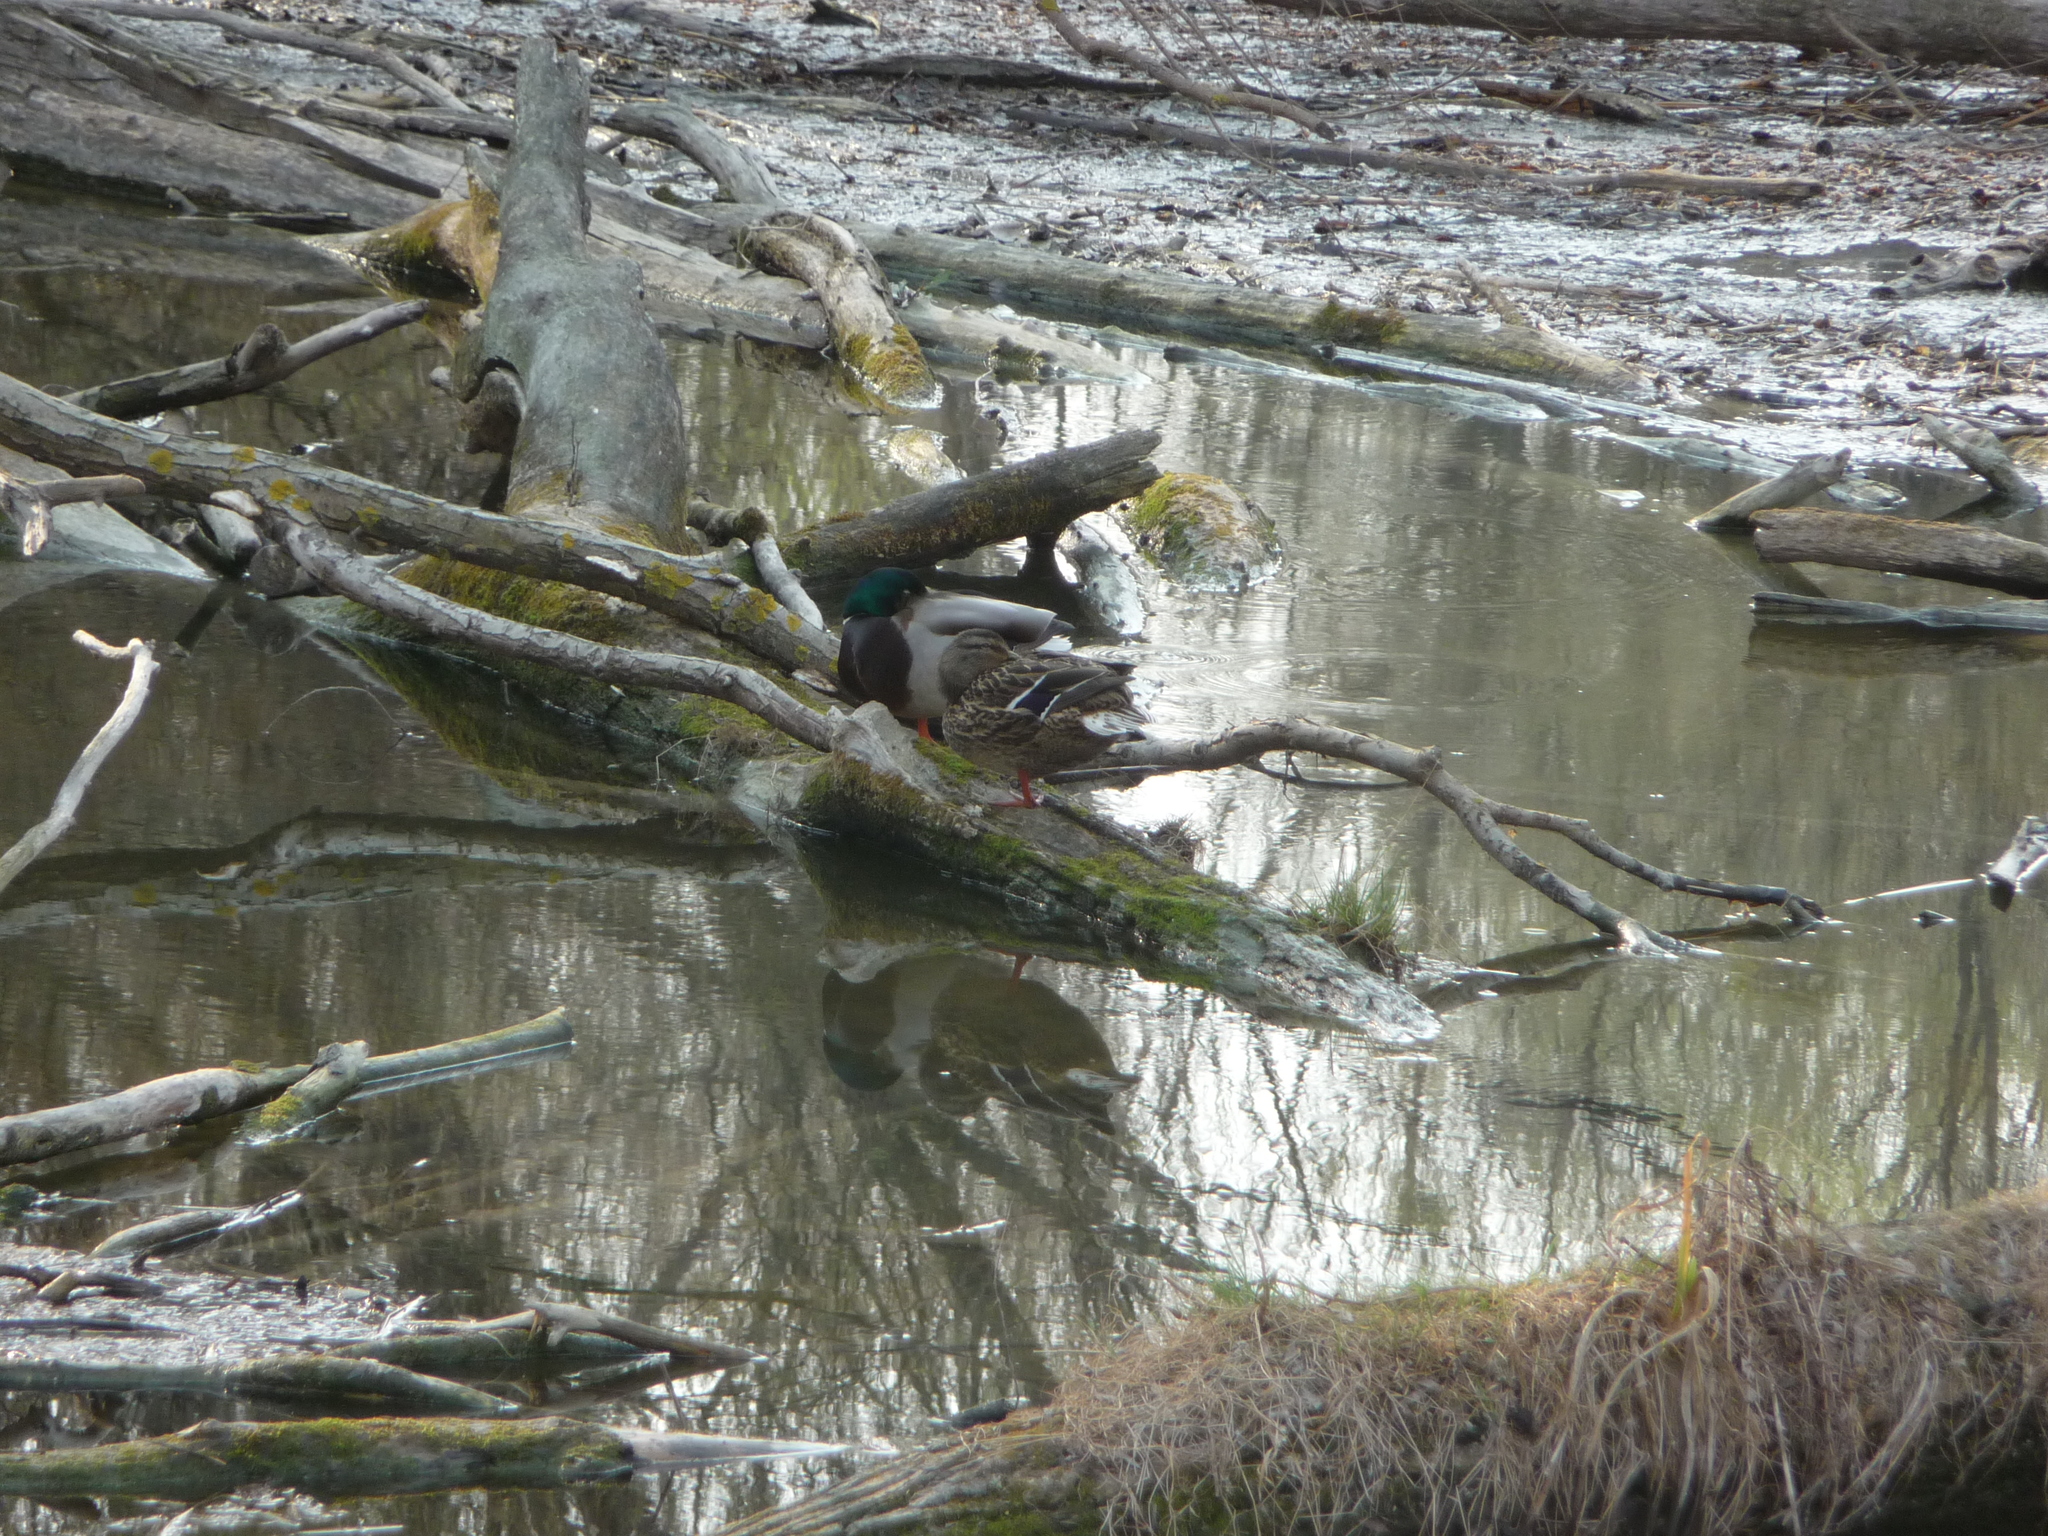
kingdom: Animalia
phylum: Chordata
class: Aves
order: Anseriformes
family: Anatidae
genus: Anas
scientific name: Anas platyrhynchos
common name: Mallard
